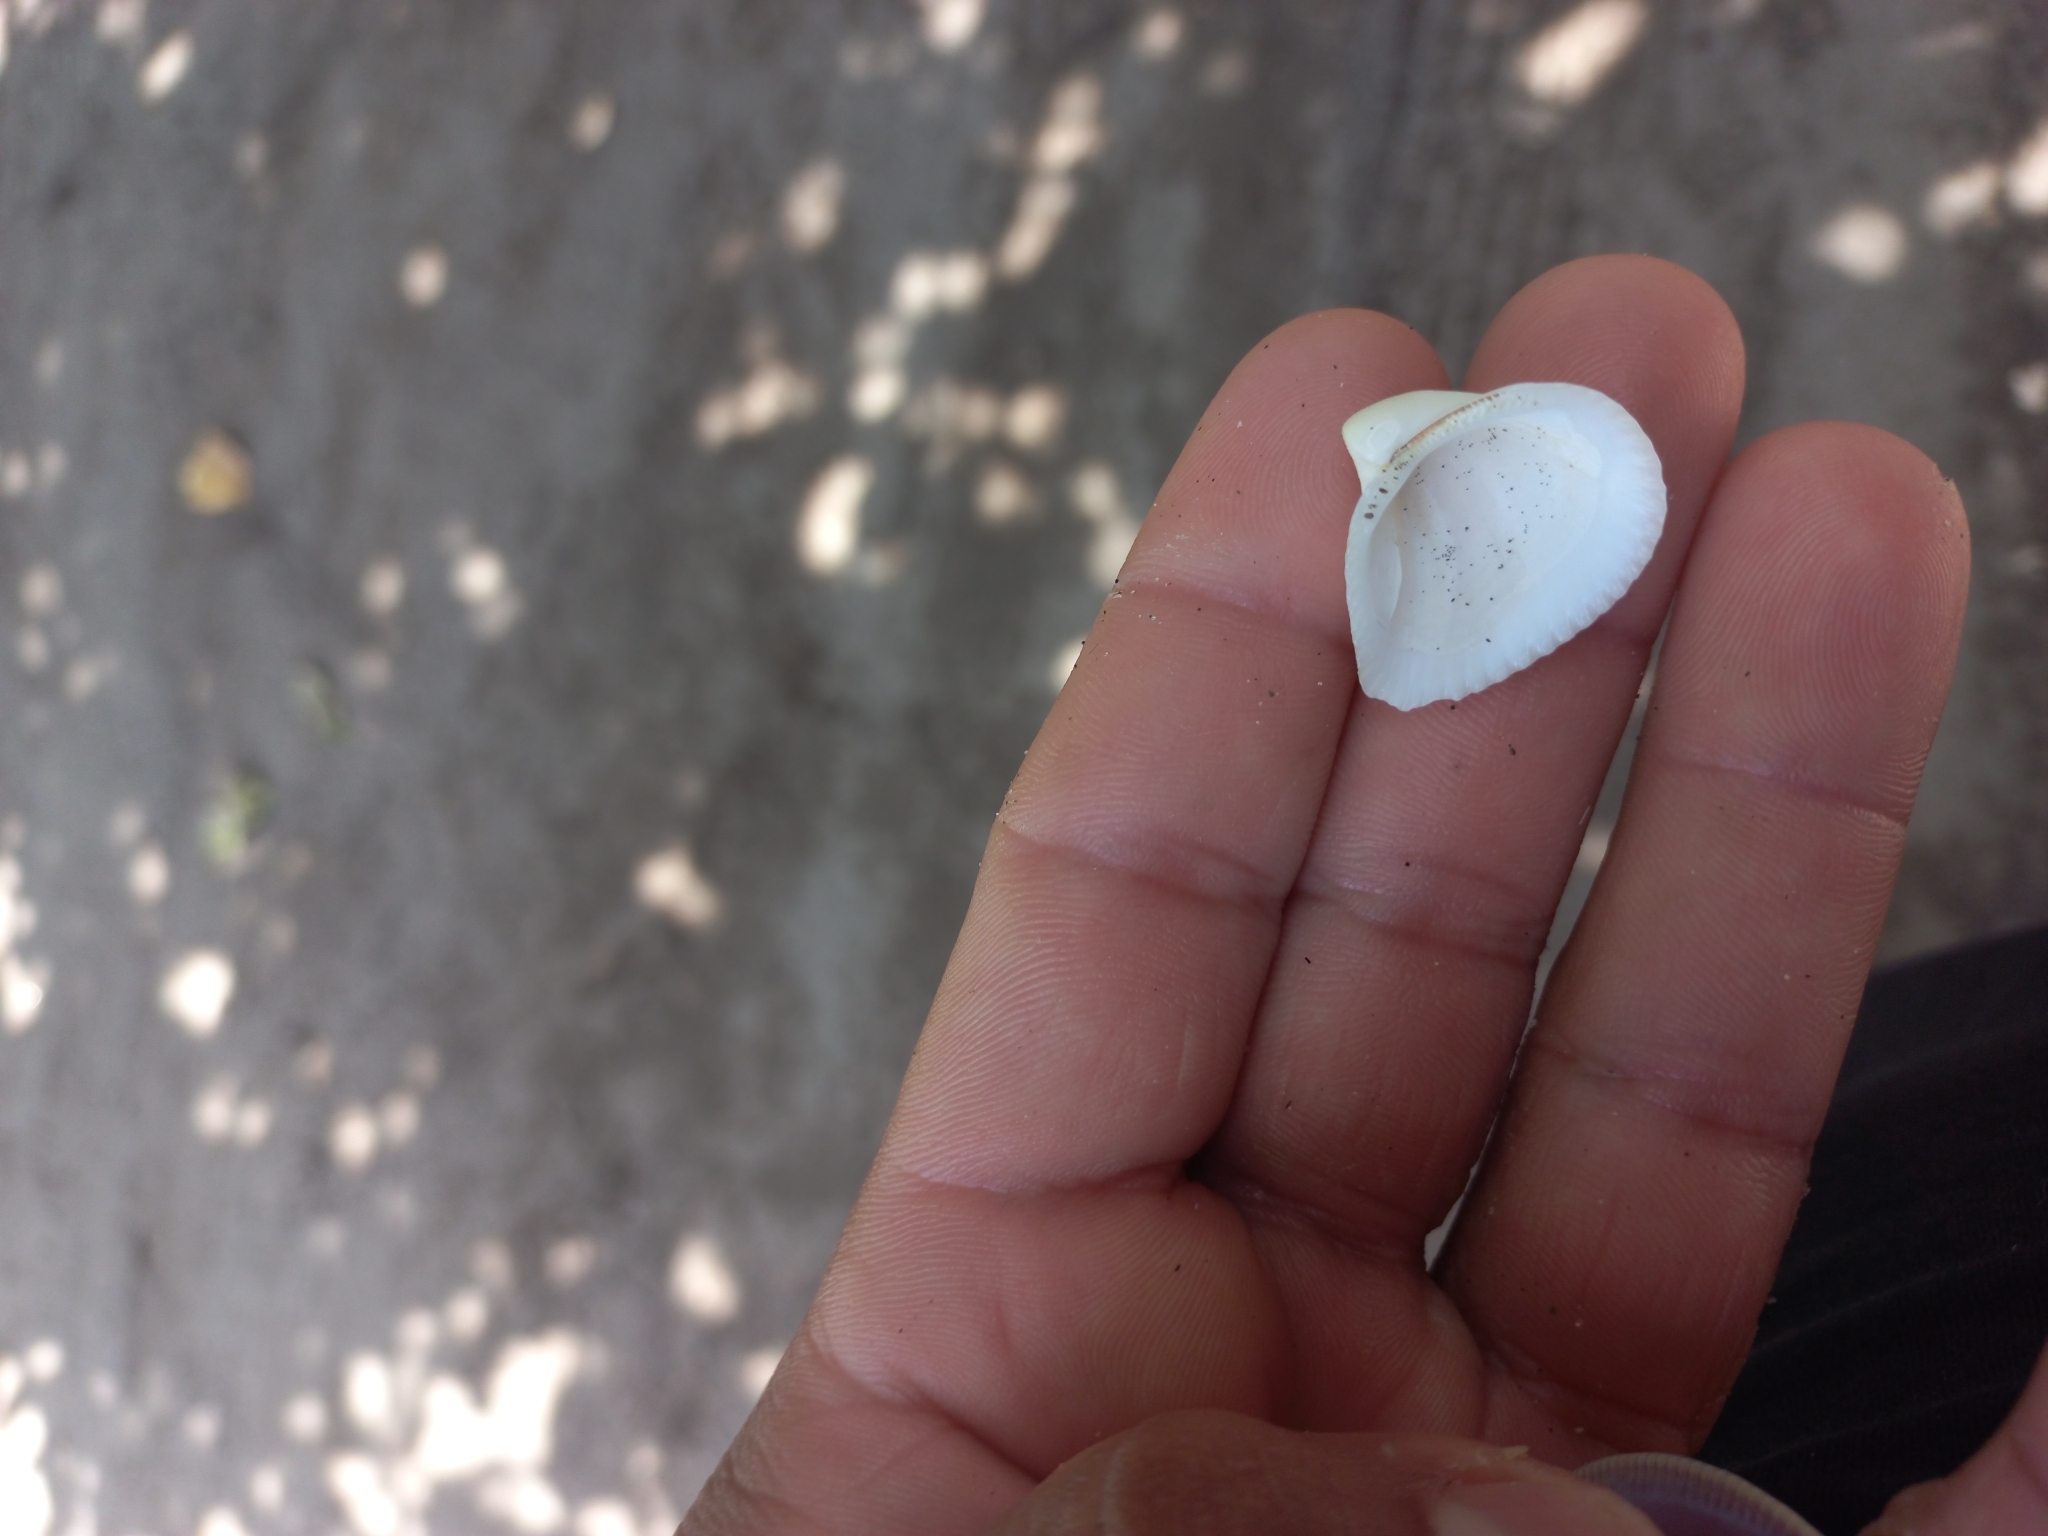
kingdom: Animalia
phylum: Mollusca
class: Bivalvia
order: Arcida
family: Noetiidae
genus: Noetia
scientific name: Noetia reversa
